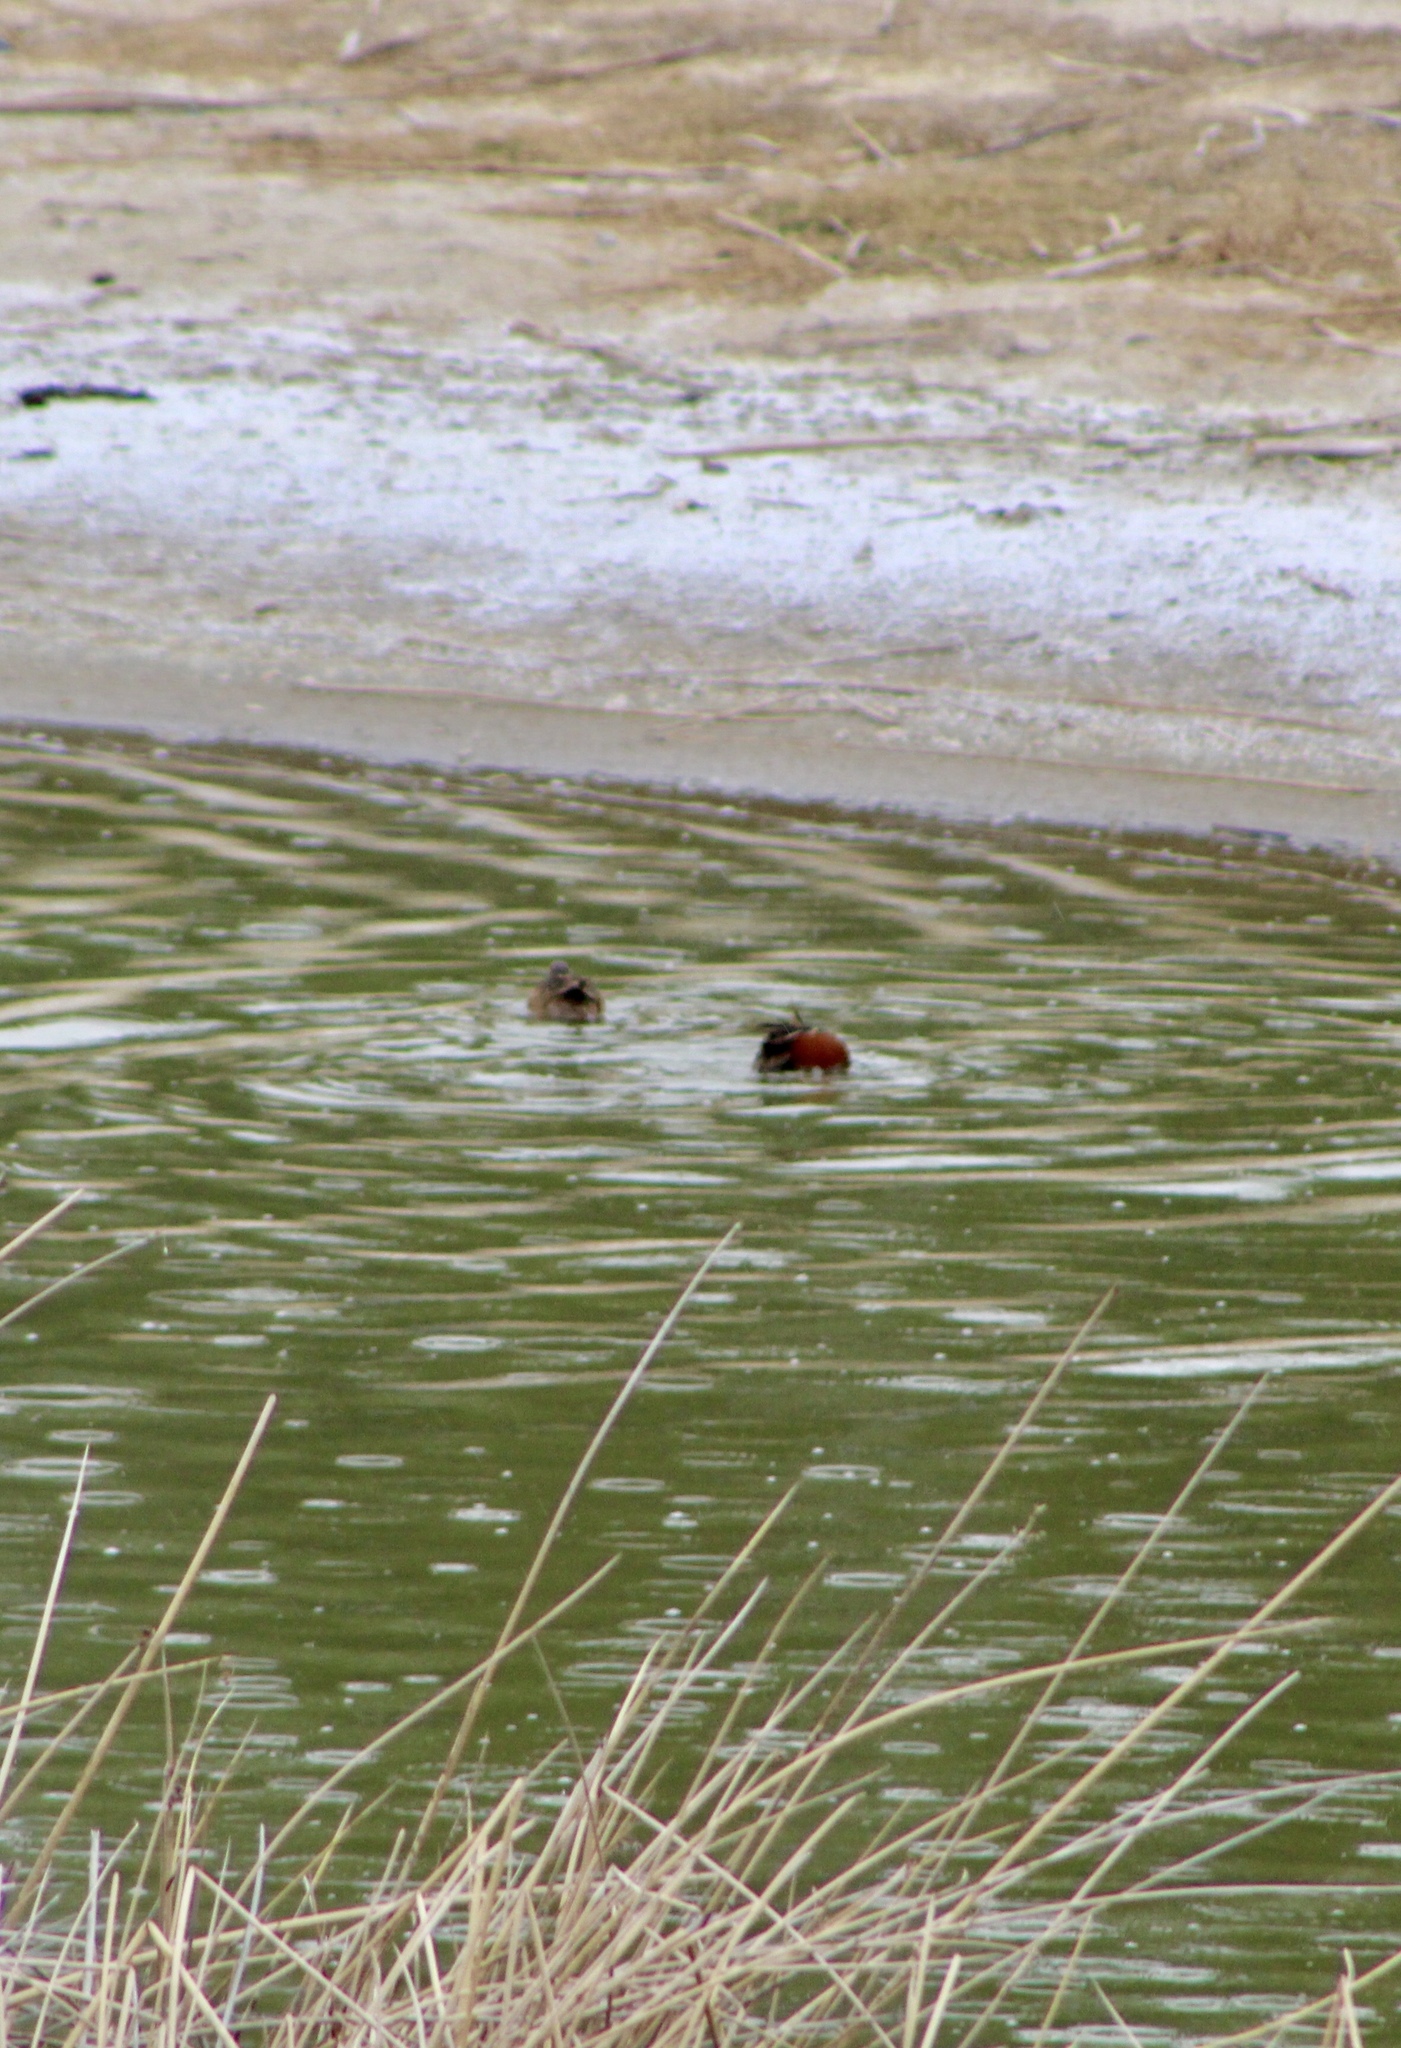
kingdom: Animalia
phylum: Chordata
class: Aves
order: Anseriformes
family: Anatidae
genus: Spatula
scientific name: Spatula cyanoptera
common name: Cinnamon teal
